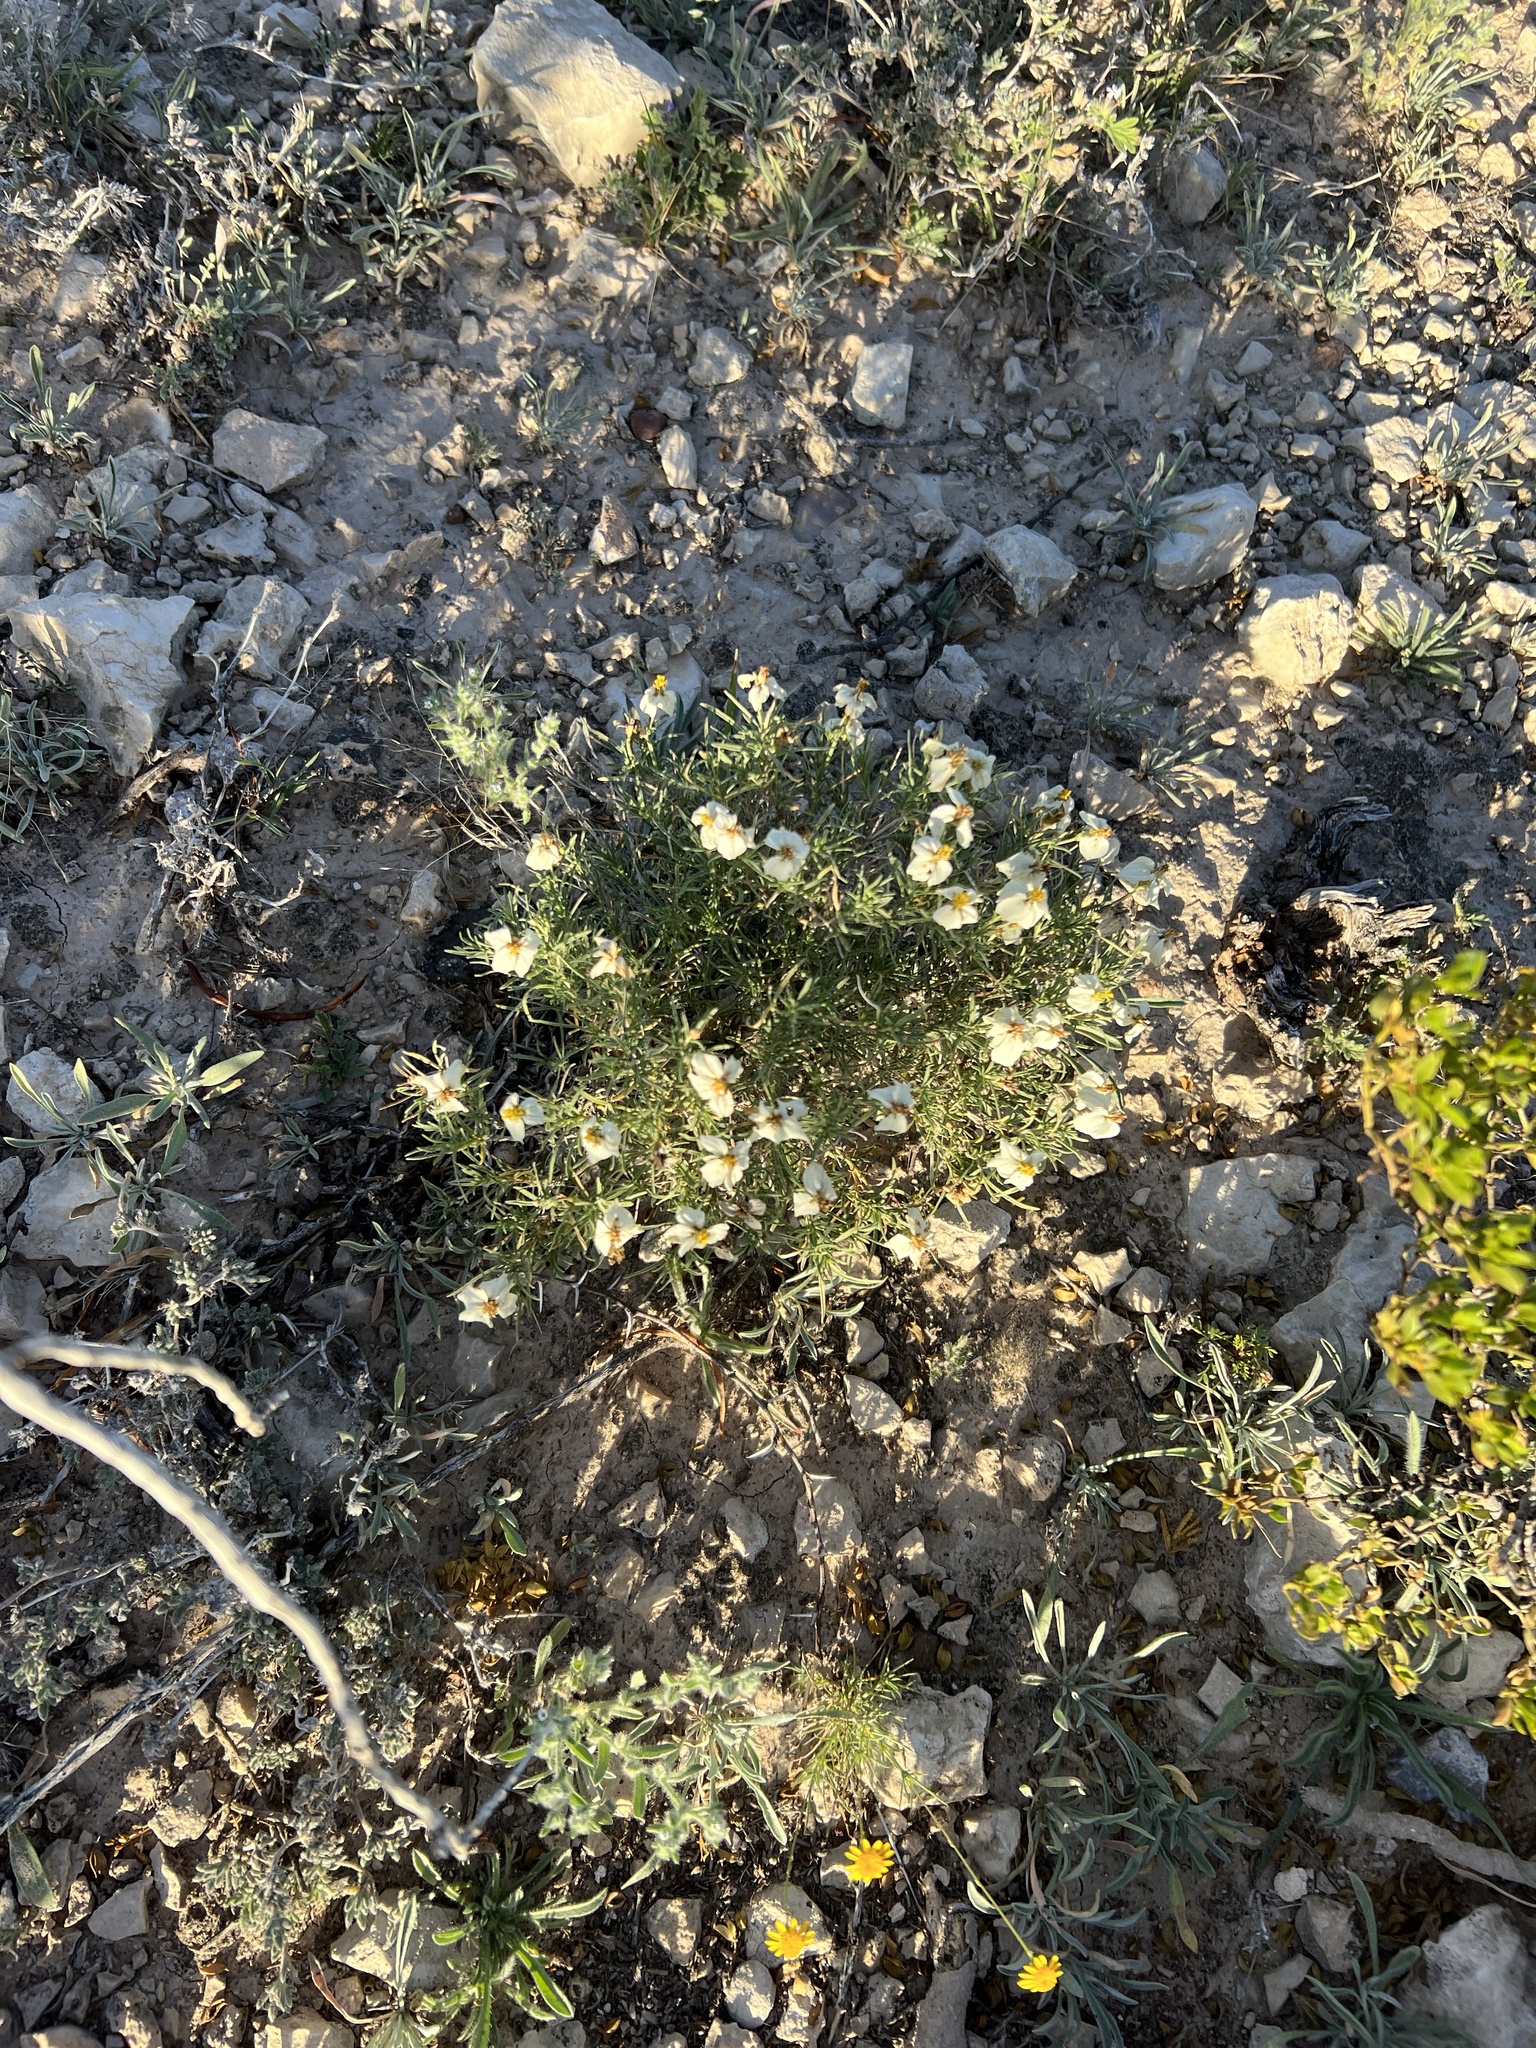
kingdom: Plantae
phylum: Tracheophyta
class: Magnoliopsida
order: Asterales
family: Asteraceae
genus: Zinnia
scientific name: Zinnia acerosa
